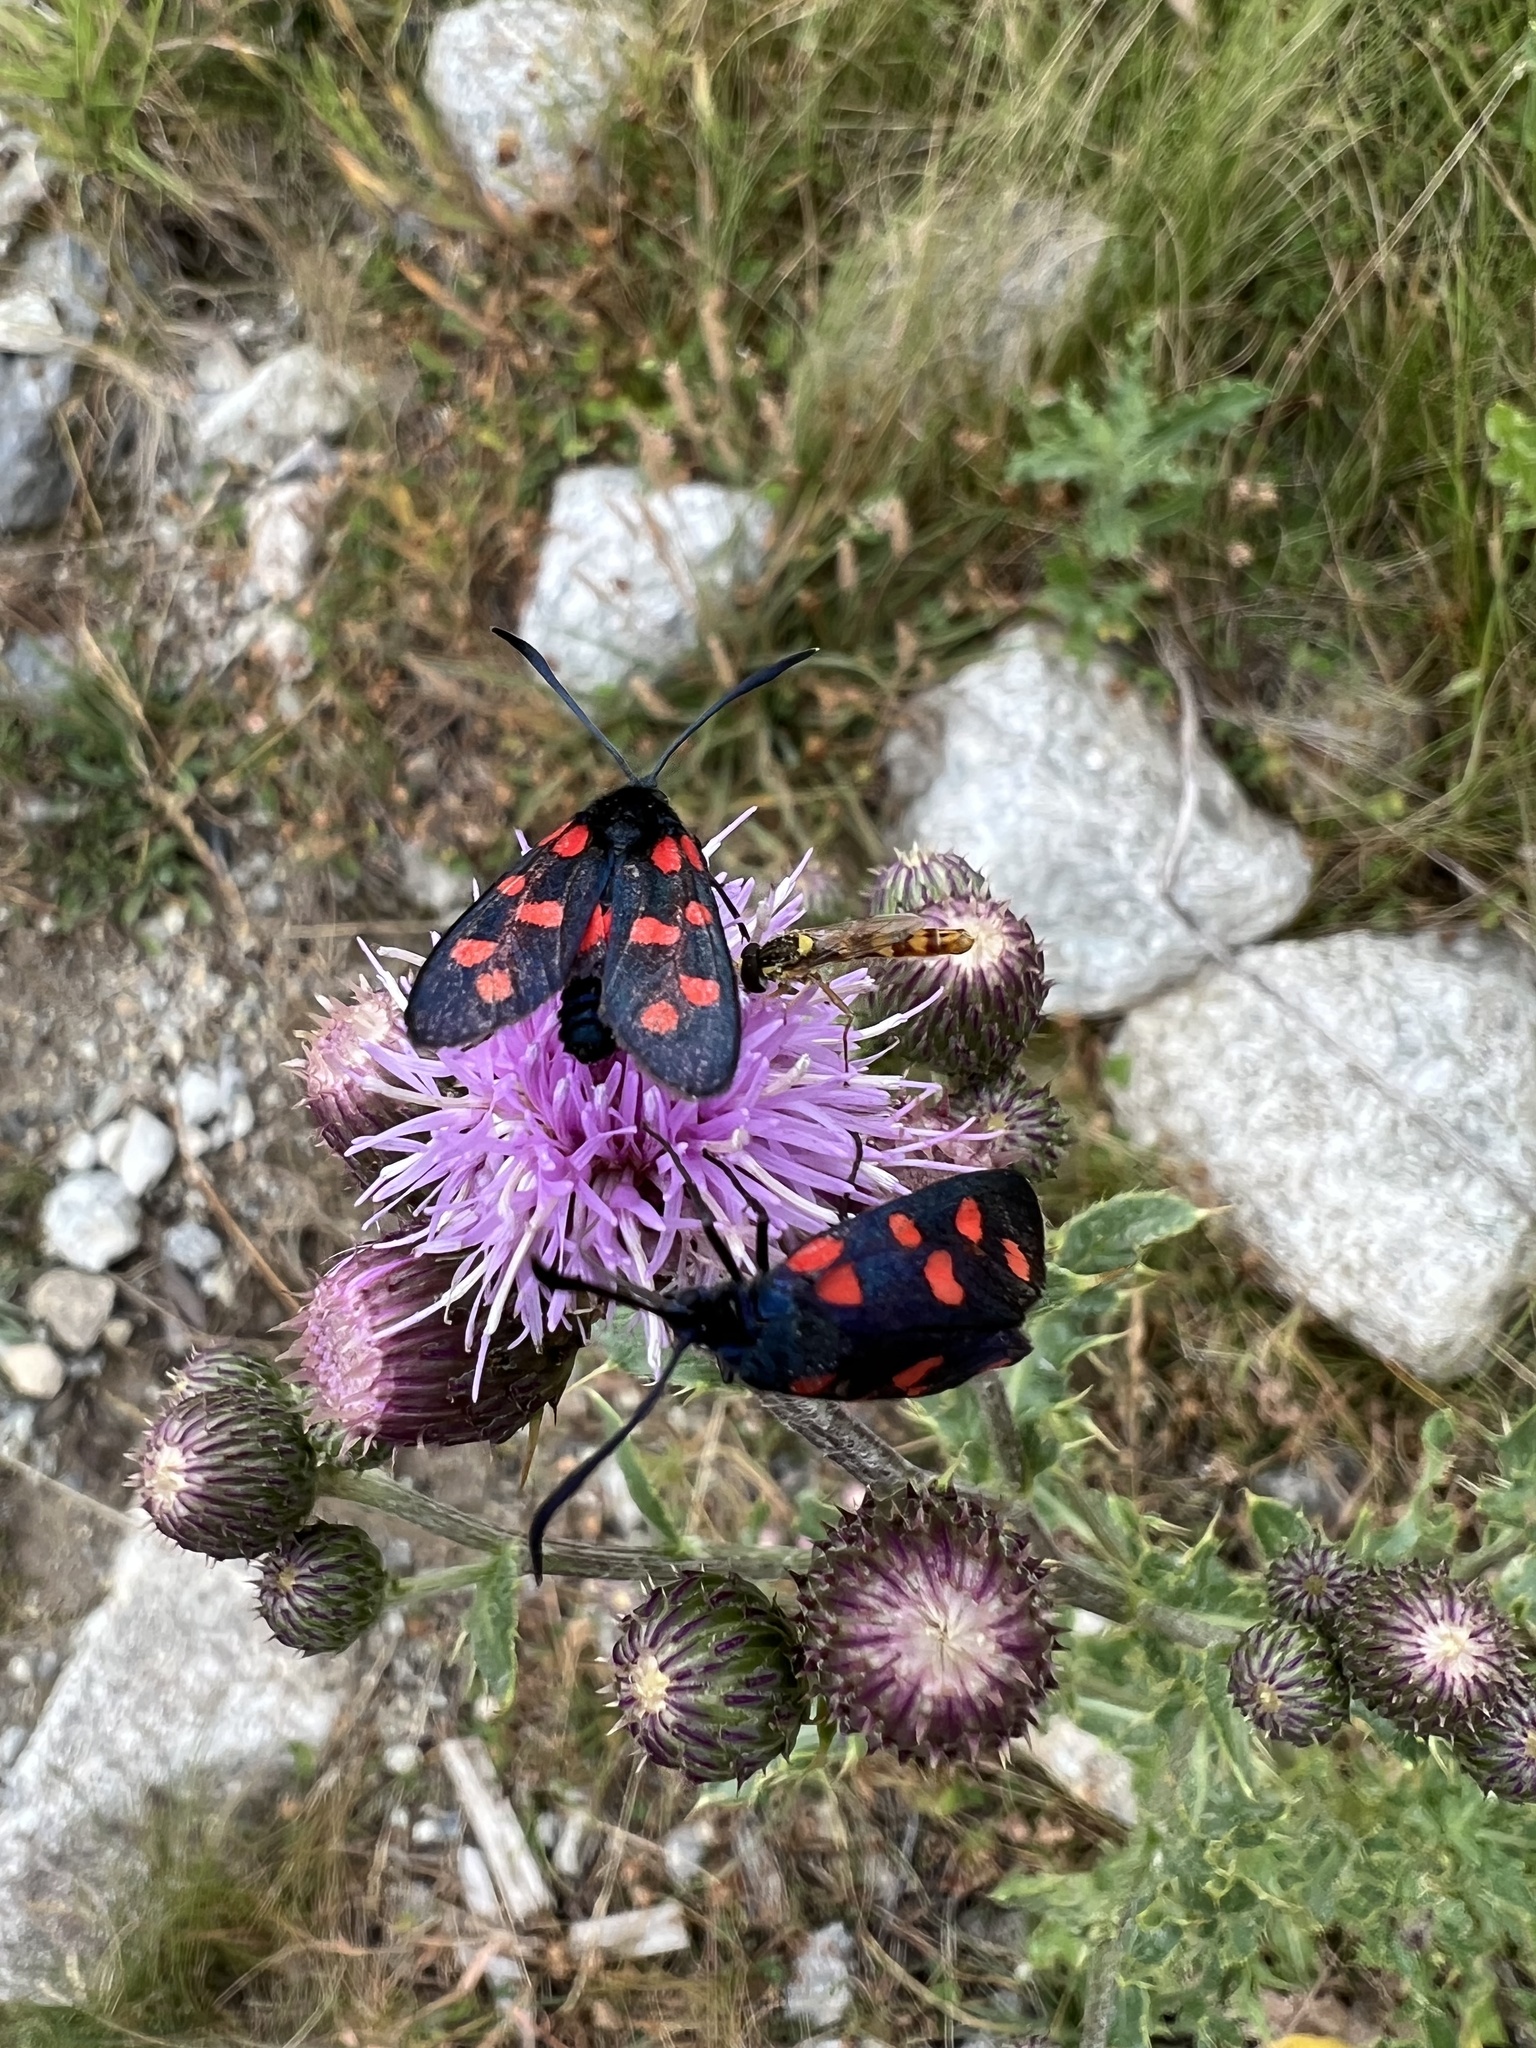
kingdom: Animalia
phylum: Arthropoda
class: Insecta
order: Lepidoptera
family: Zygaenidae
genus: Zygaena
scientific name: Zygaena transalpina
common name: Southern six spot burnet
